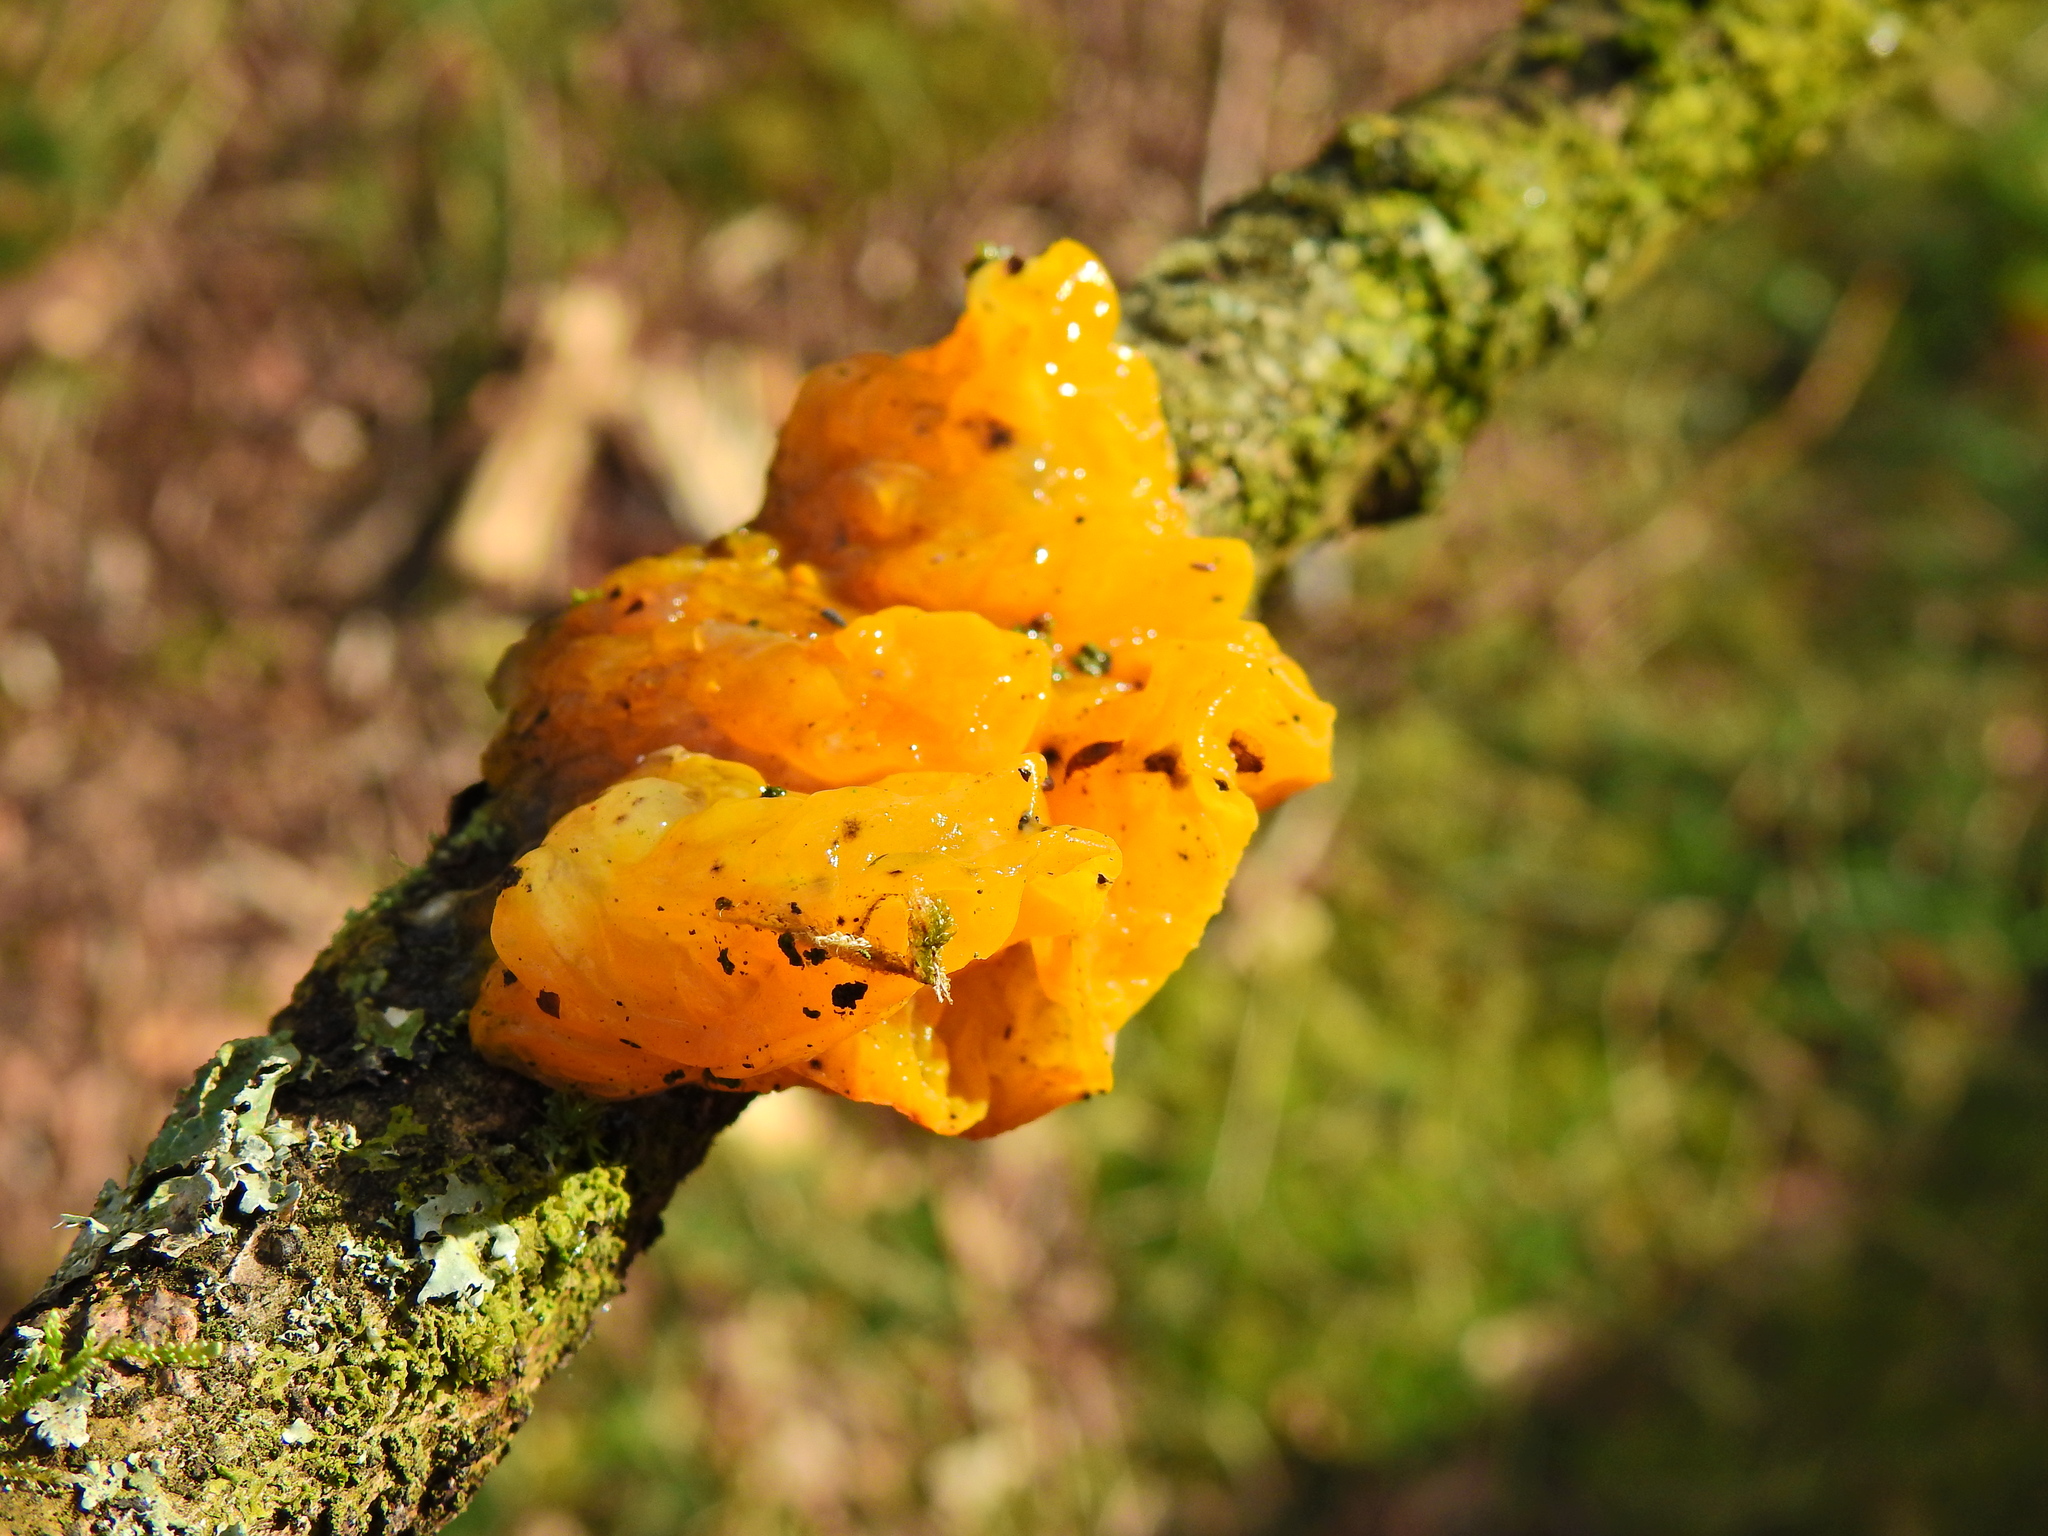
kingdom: Fungi
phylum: Basidiomycota
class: Tremellomycetes
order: Tremellales
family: Tremellaceae
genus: Tremella
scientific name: Tremella mesenterica
